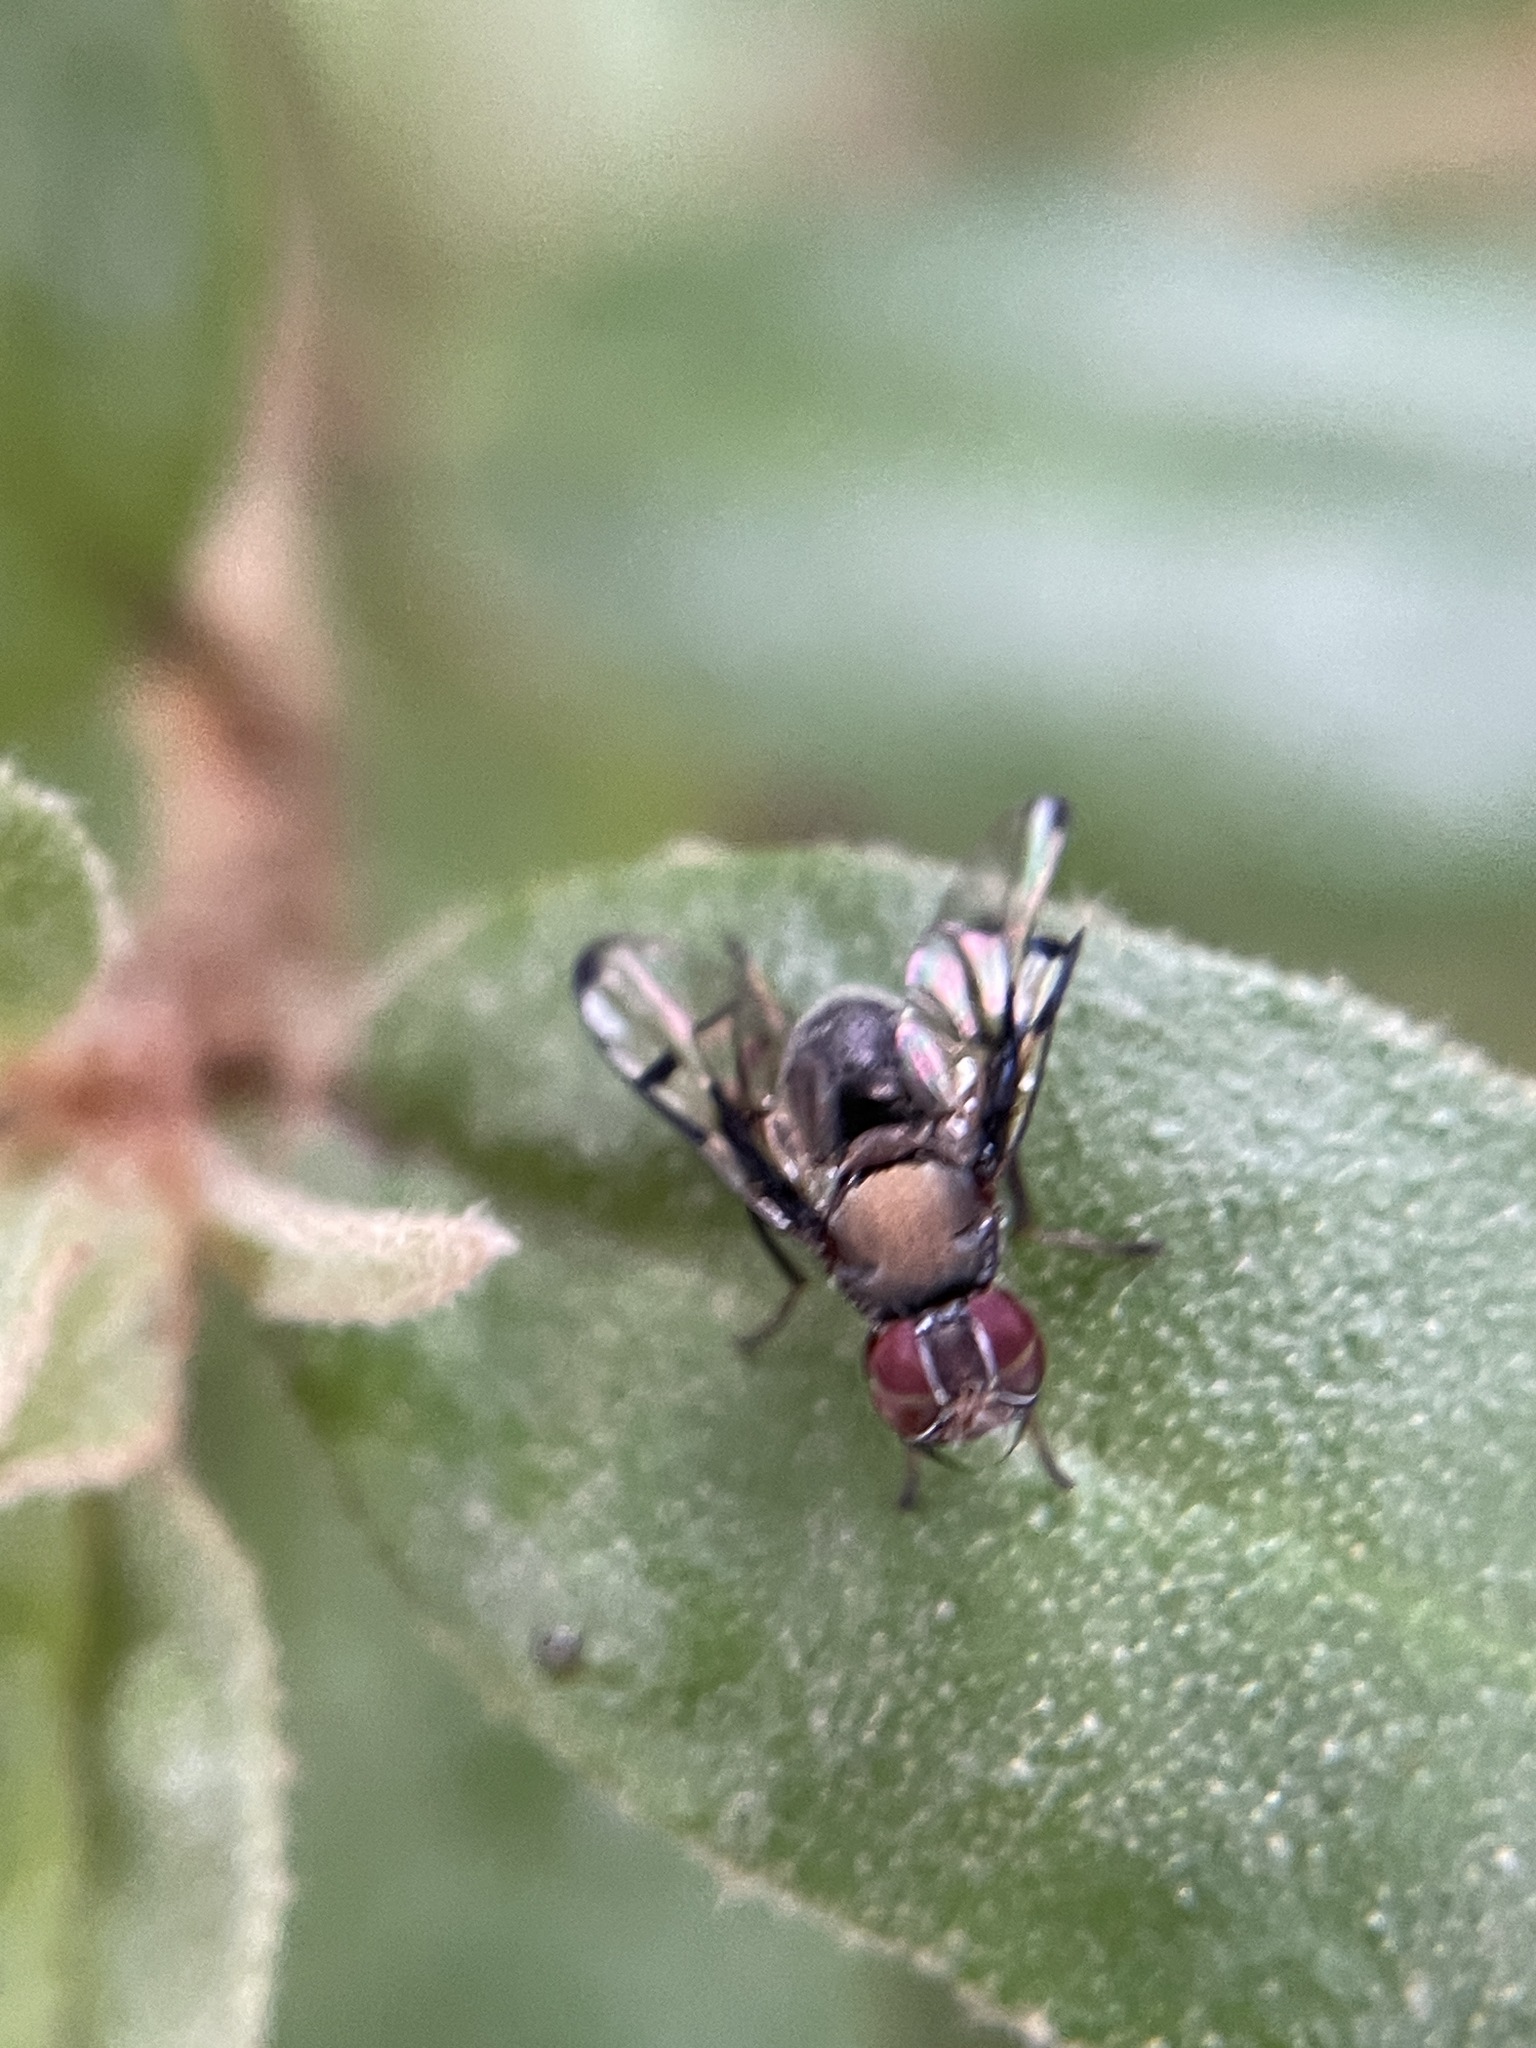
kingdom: Animalia
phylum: Arthropoda
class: Insecta
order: Diptera
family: Platystomatidae
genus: Pogonortalis
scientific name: Pogonortalis doclea
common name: Boatman fly
